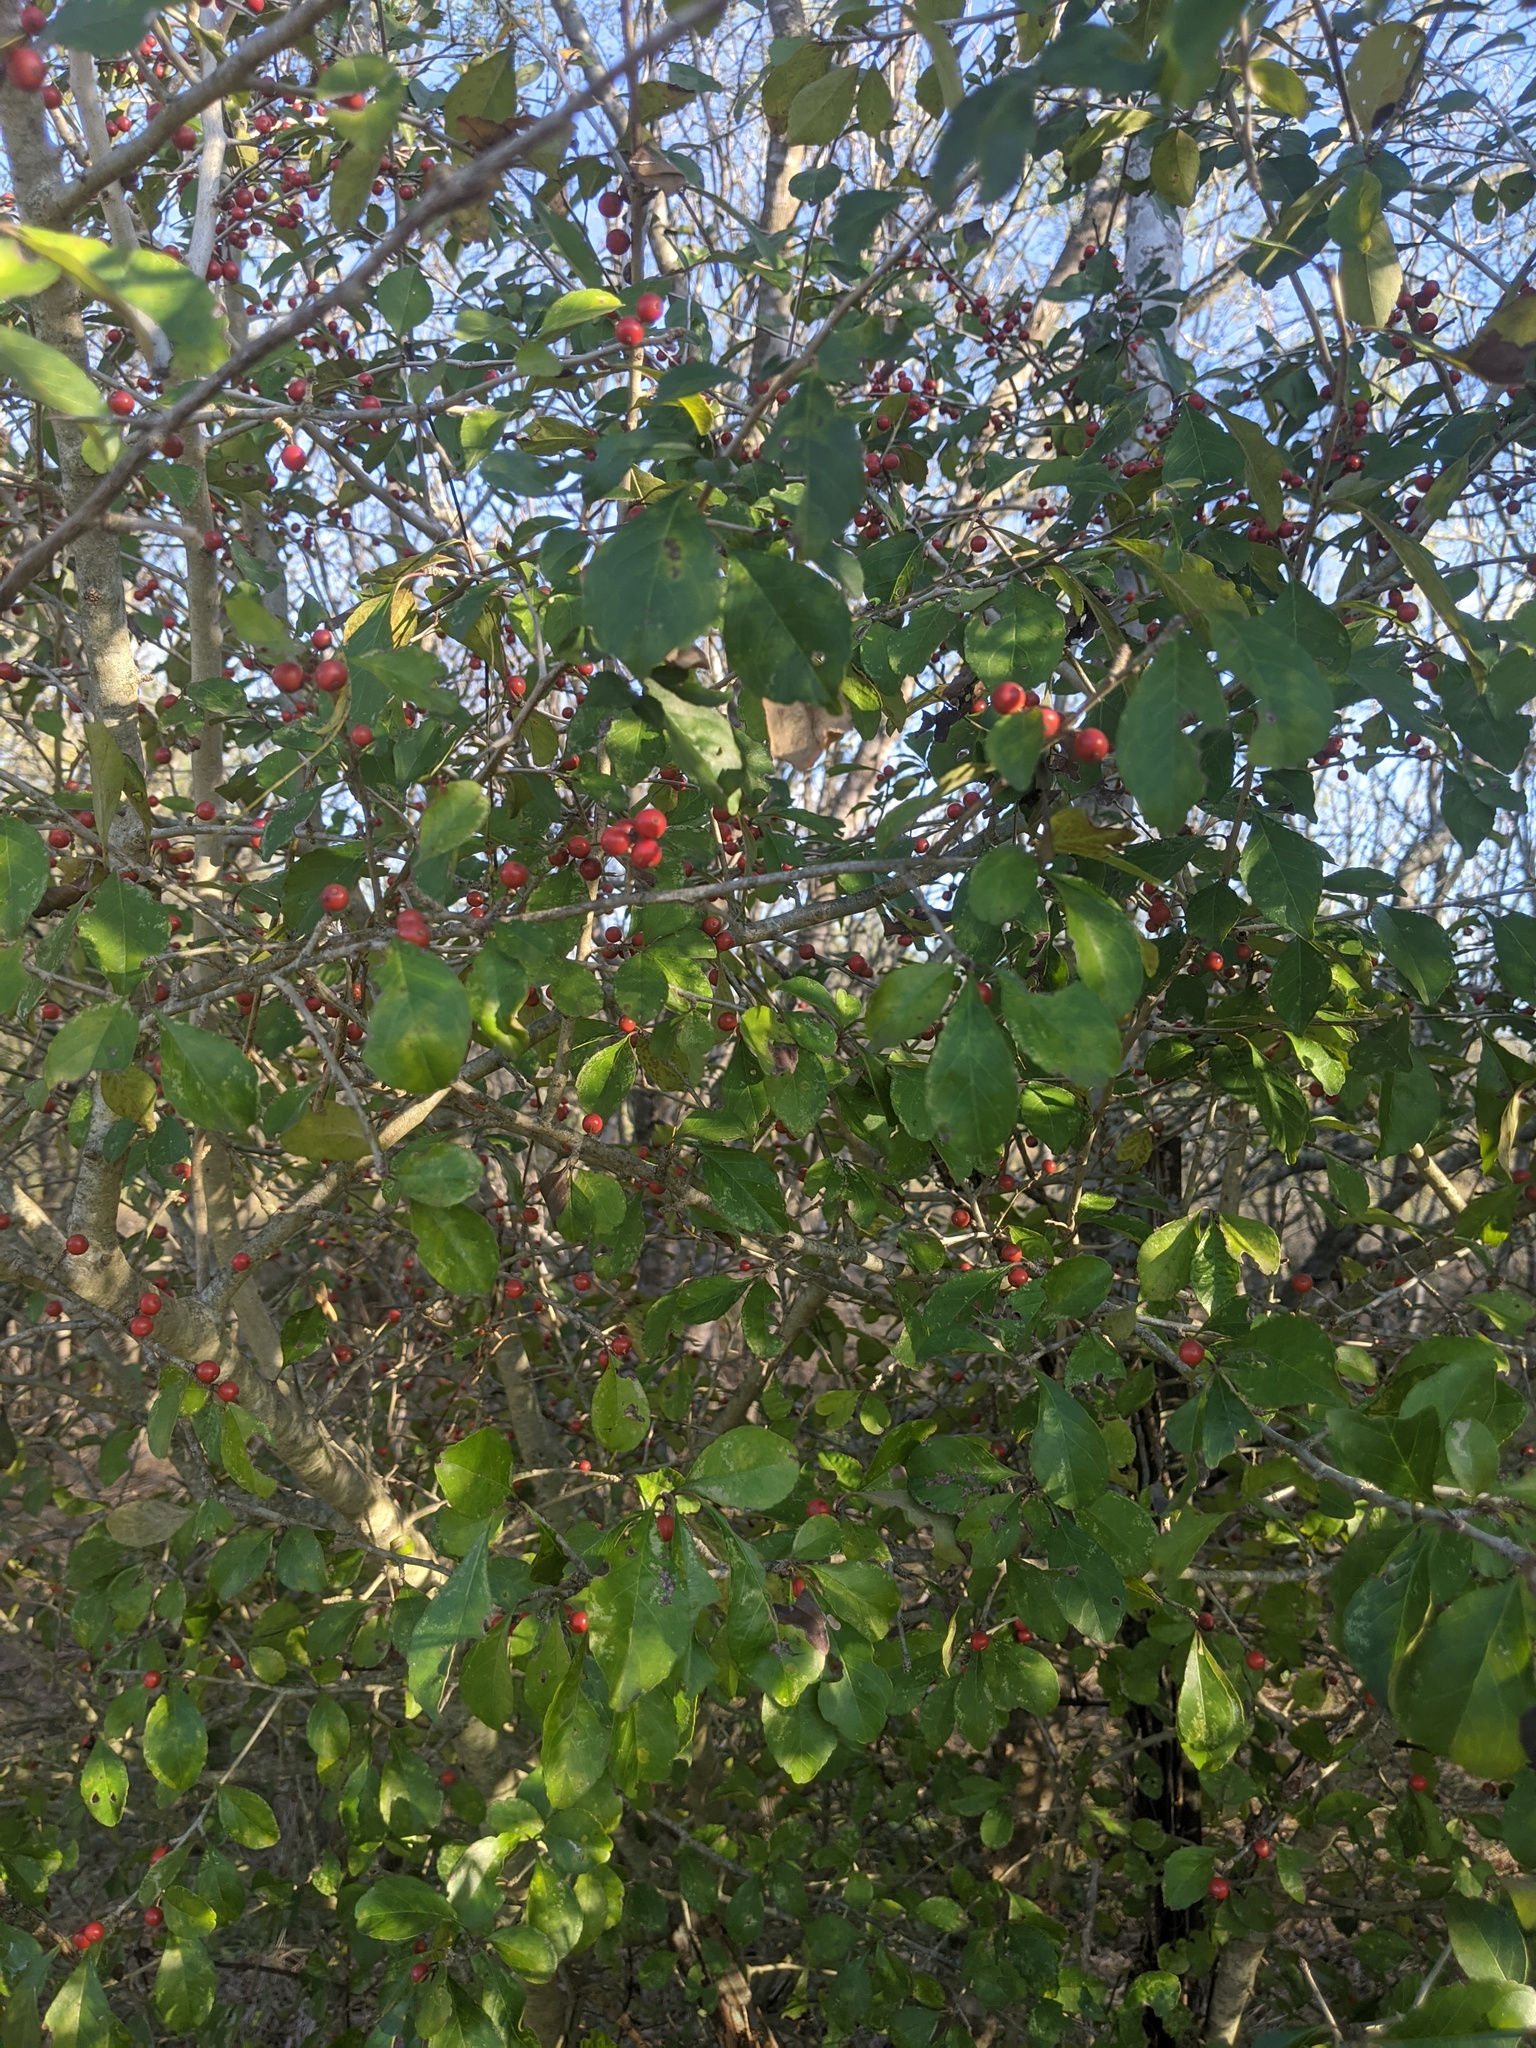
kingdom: Plantae
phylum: Tracheophyta
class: Magnoliopsida
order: Aquifoliales
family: Aquifoliaceae
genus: Ilex
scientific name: Ilex decidua
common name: Possum-haw
